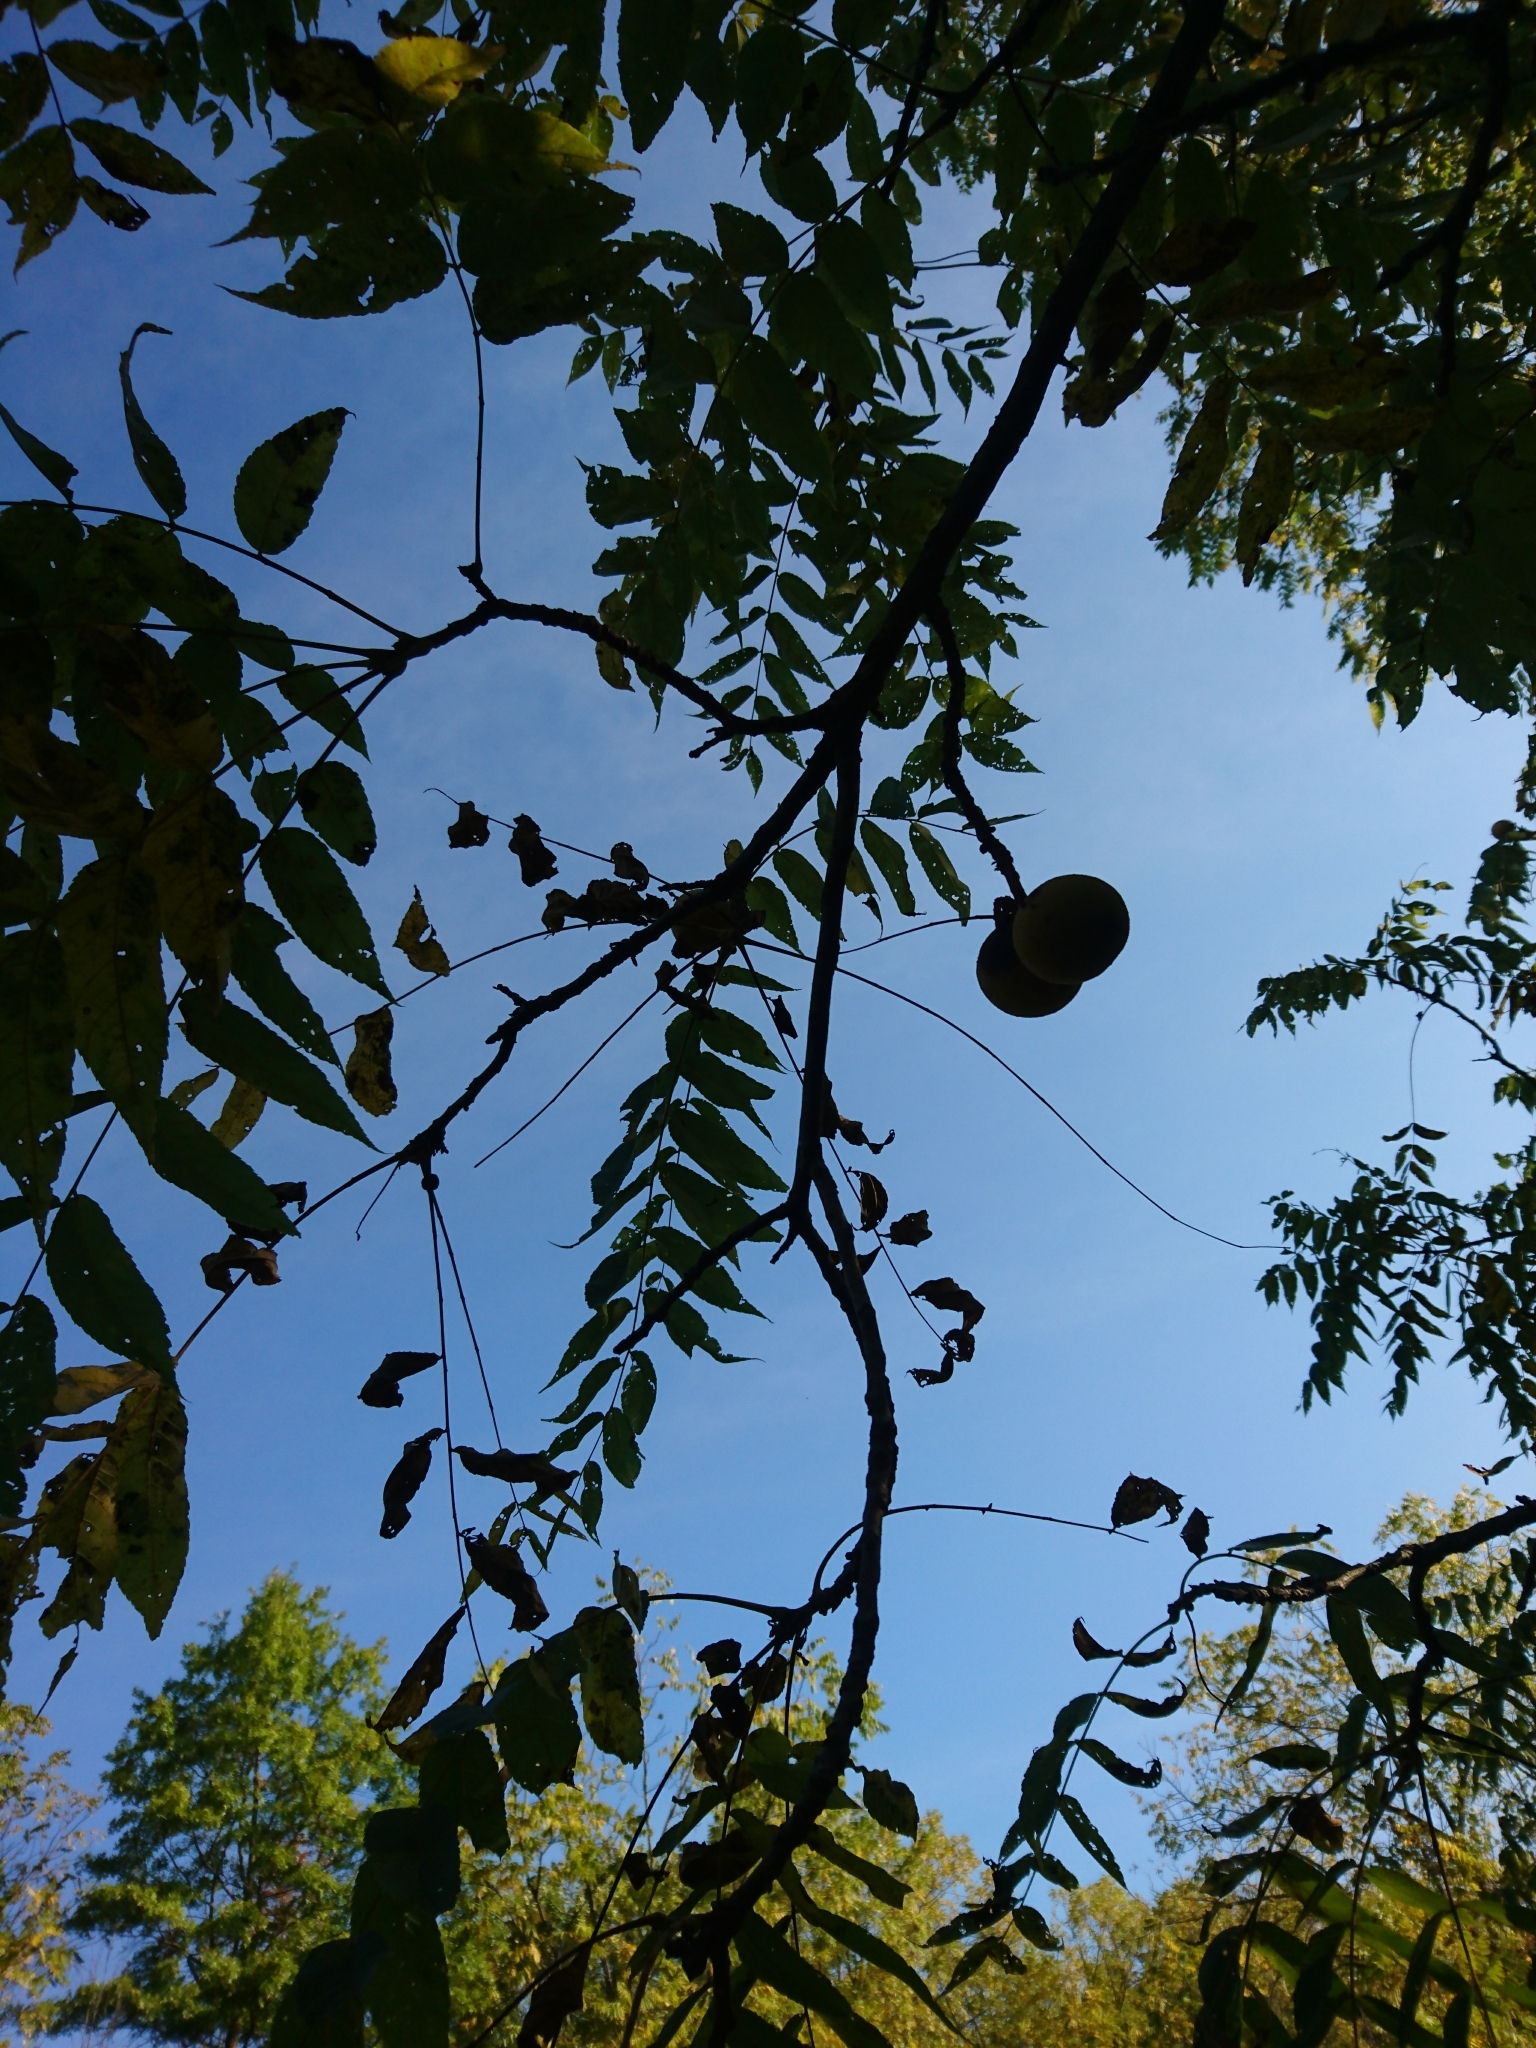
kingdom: Plantae
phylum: Tracheophyta
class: Magnoliopsida
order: Fagales
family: Juglandaceae
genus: Juglans
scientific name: Juglans nigra
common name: Black walnut
